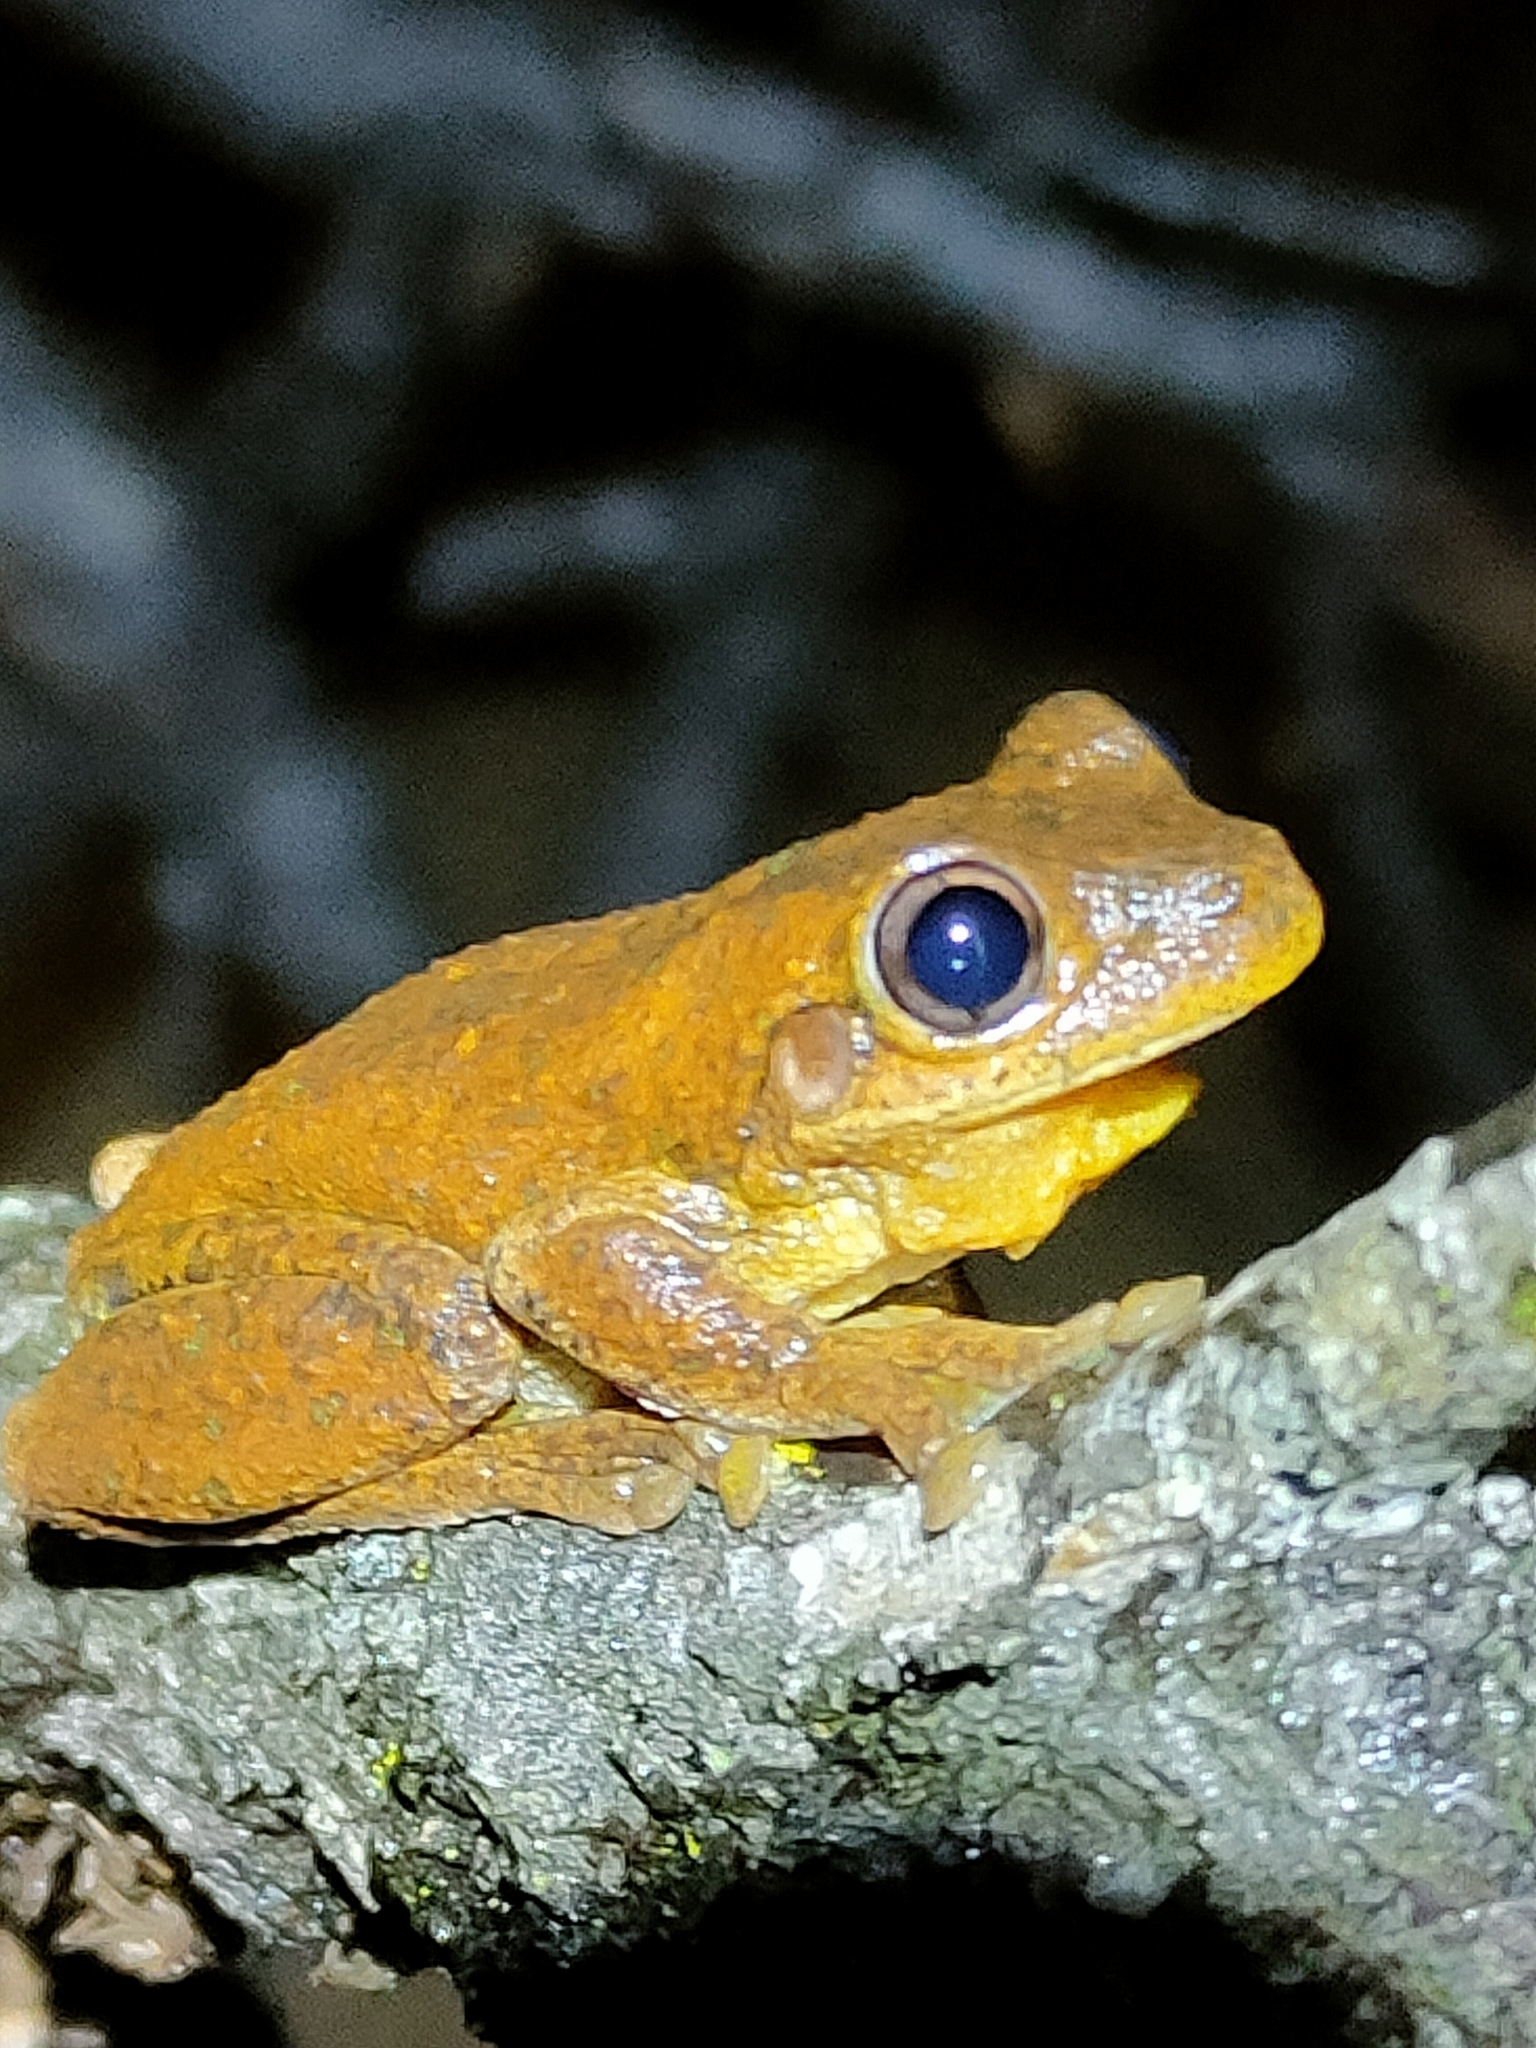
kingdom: Animalia
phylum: Chordata
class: Amphibia
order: Anura
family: Pelodryadidae
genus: Litoria
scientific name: Litoria tyleri
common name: Laughing tree frog
